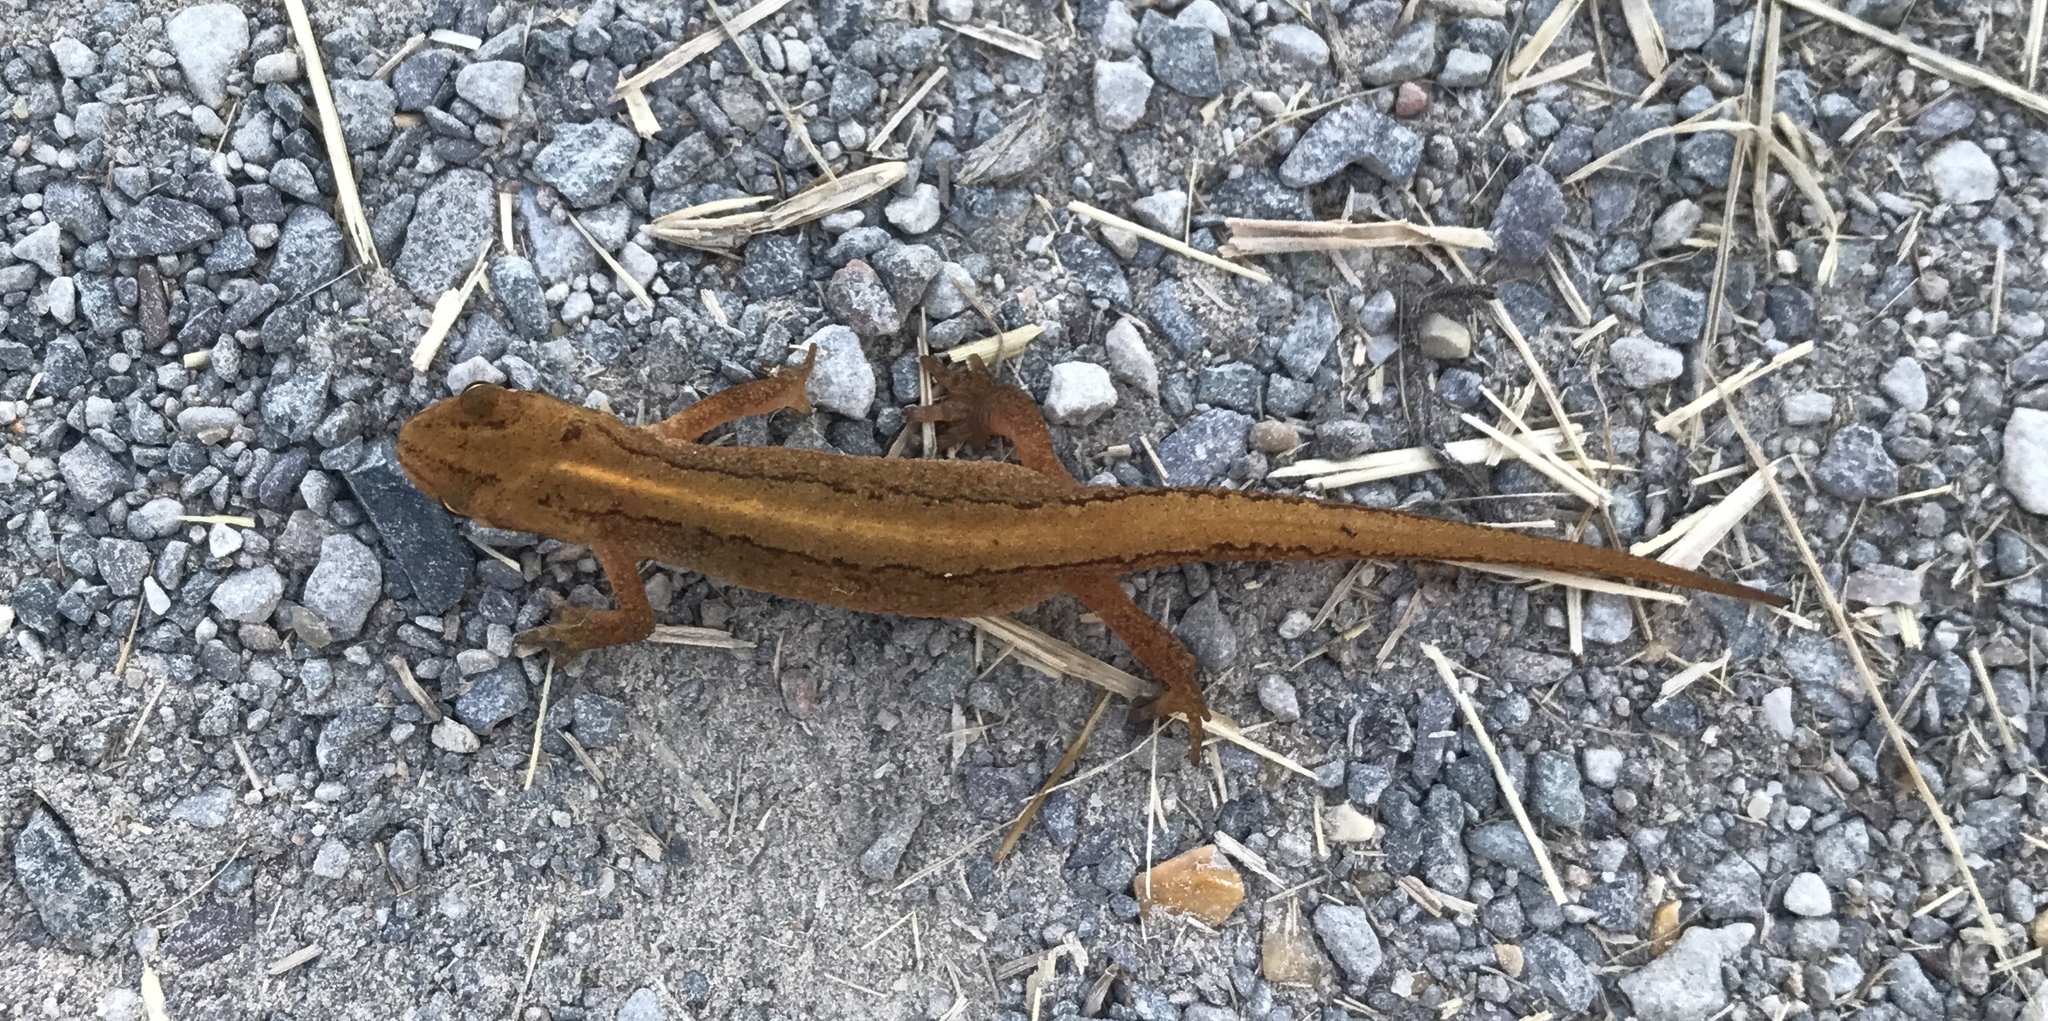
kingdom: Animalia
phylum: Chordata
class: Amphibia
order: Caudata
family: Salamandridae
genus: Lissotriton
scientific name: Lissotriton vulgaris
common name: Smooth newt
